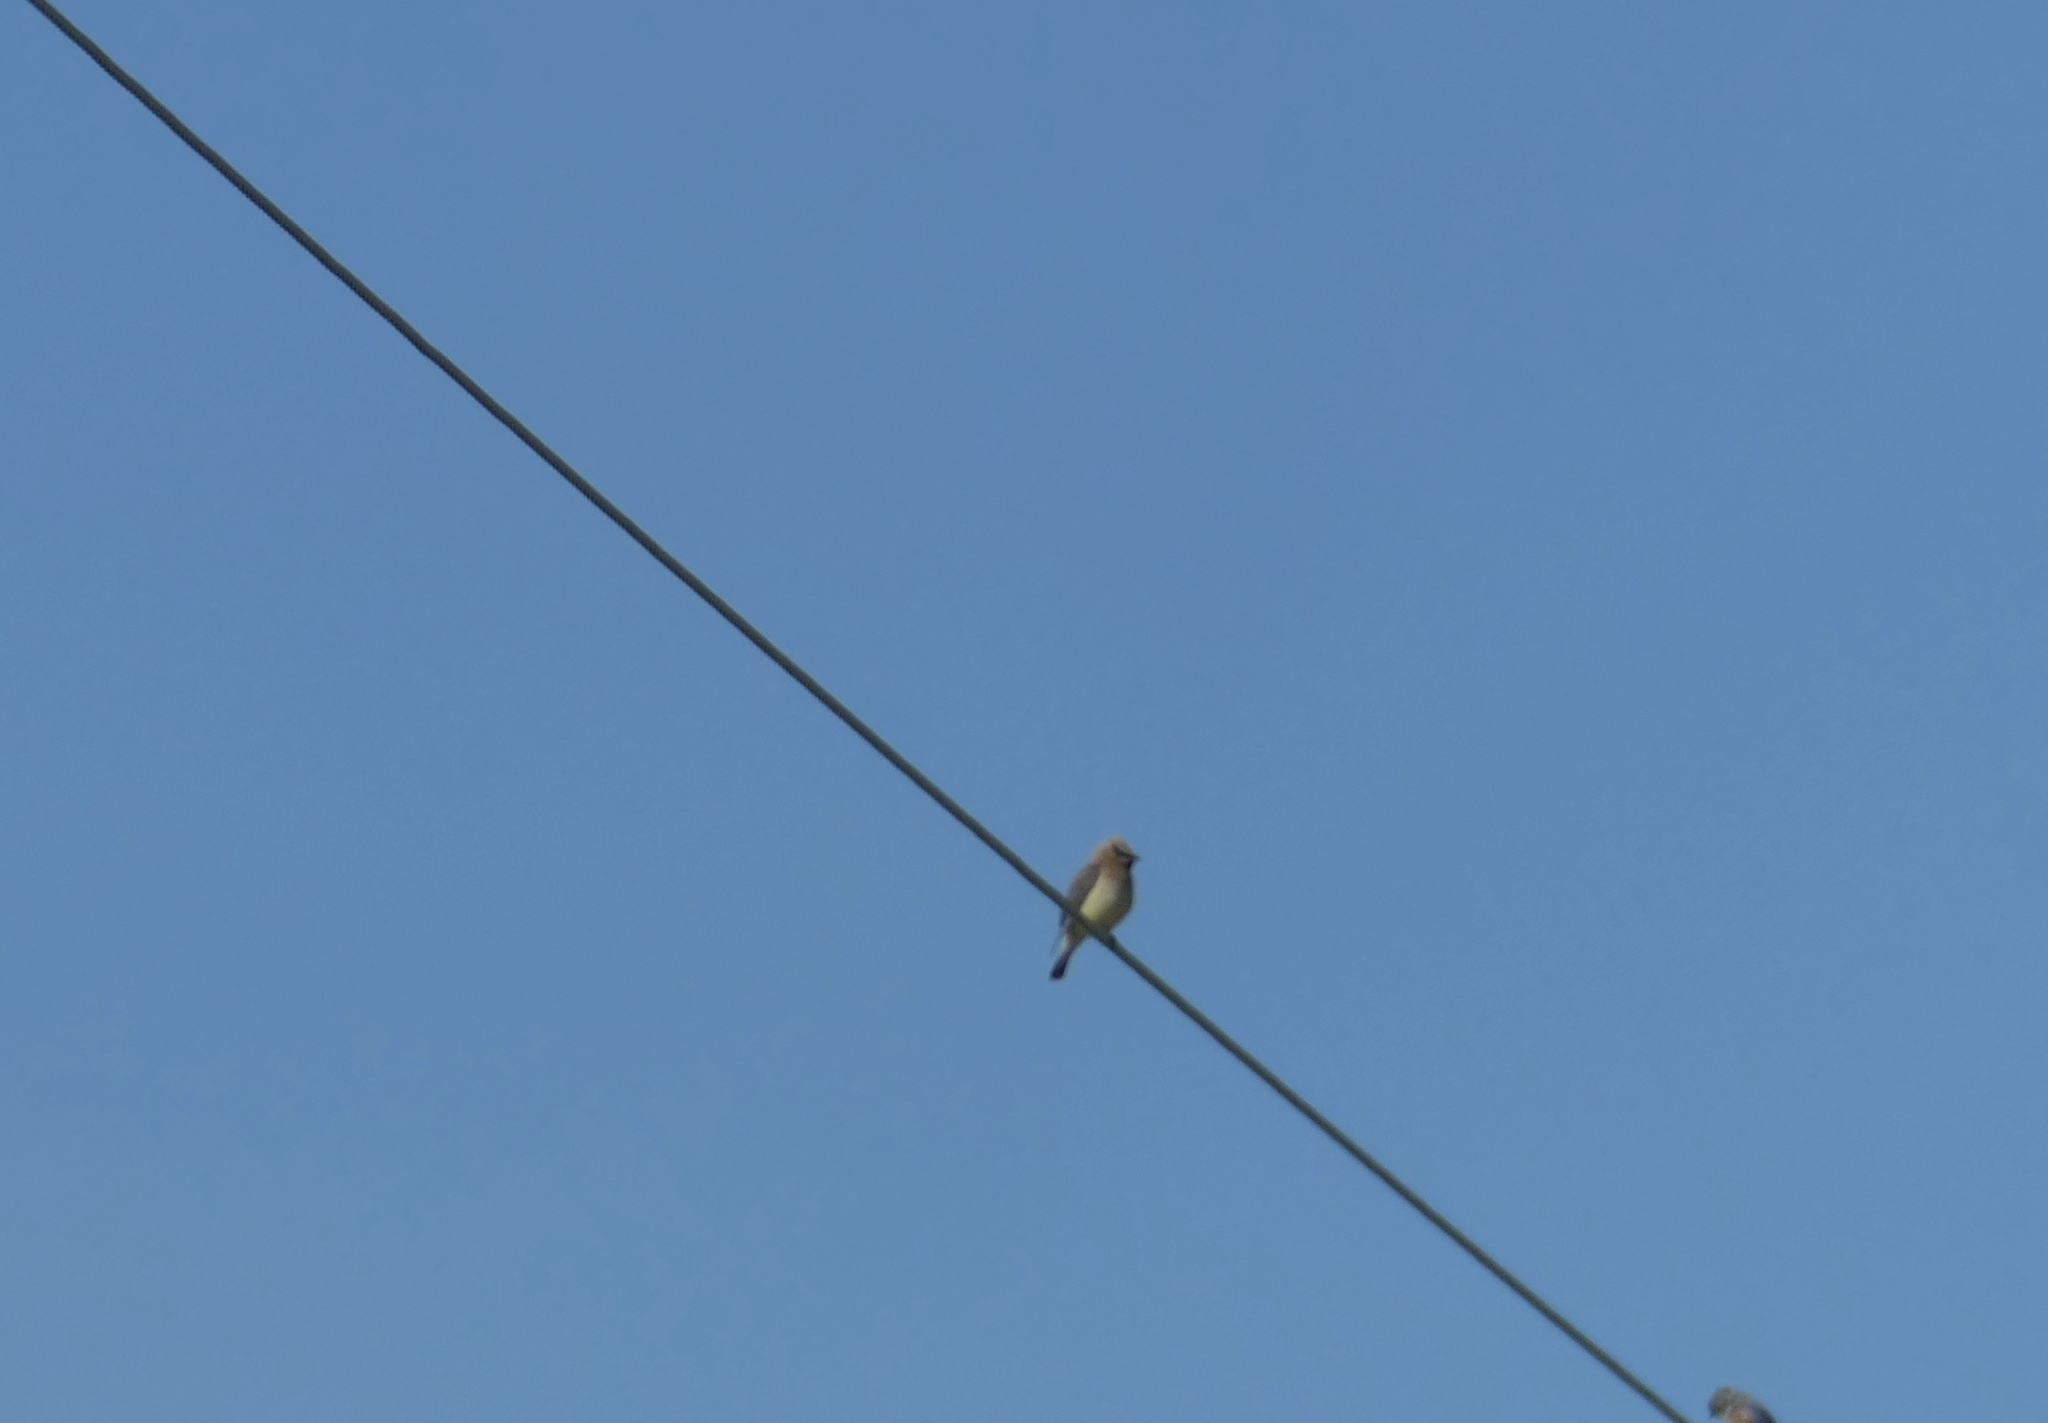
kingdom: Animalia
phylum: Chordata
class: Aves
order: Passeriformes
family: Bombycillidae
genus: Bombycilla
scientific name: Bombycilla cedrorum
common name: Cedar waxwing
